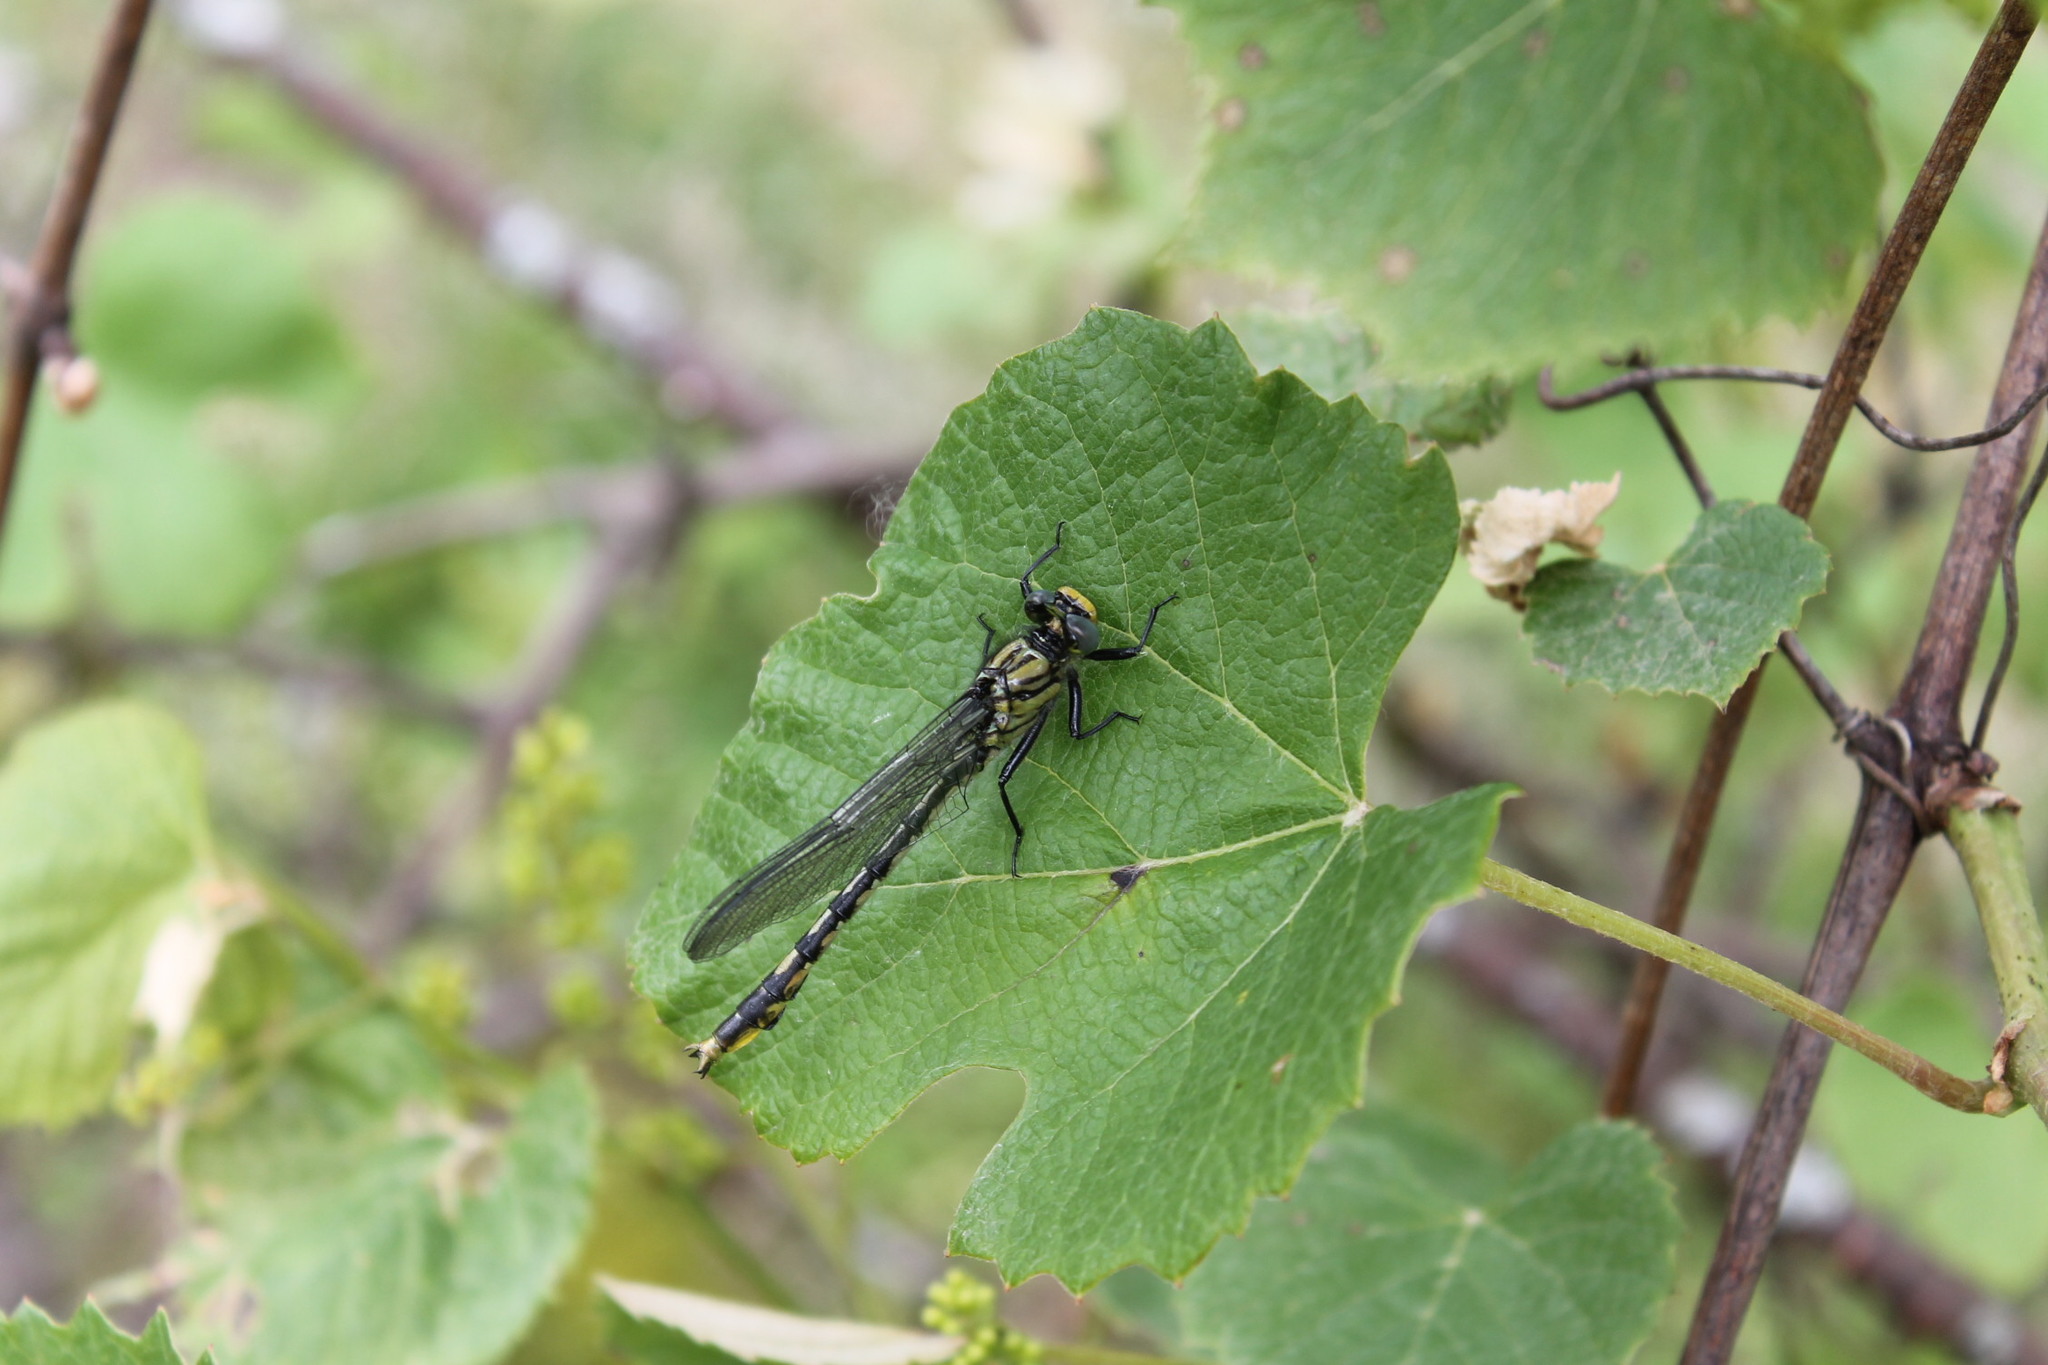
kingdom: Animalia
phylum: Arthropoda
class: Insecta
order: Odonata
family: Gomphidae
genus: Arigomphus
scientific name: Arigomphus villosipes
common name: Unicorn clubtail
